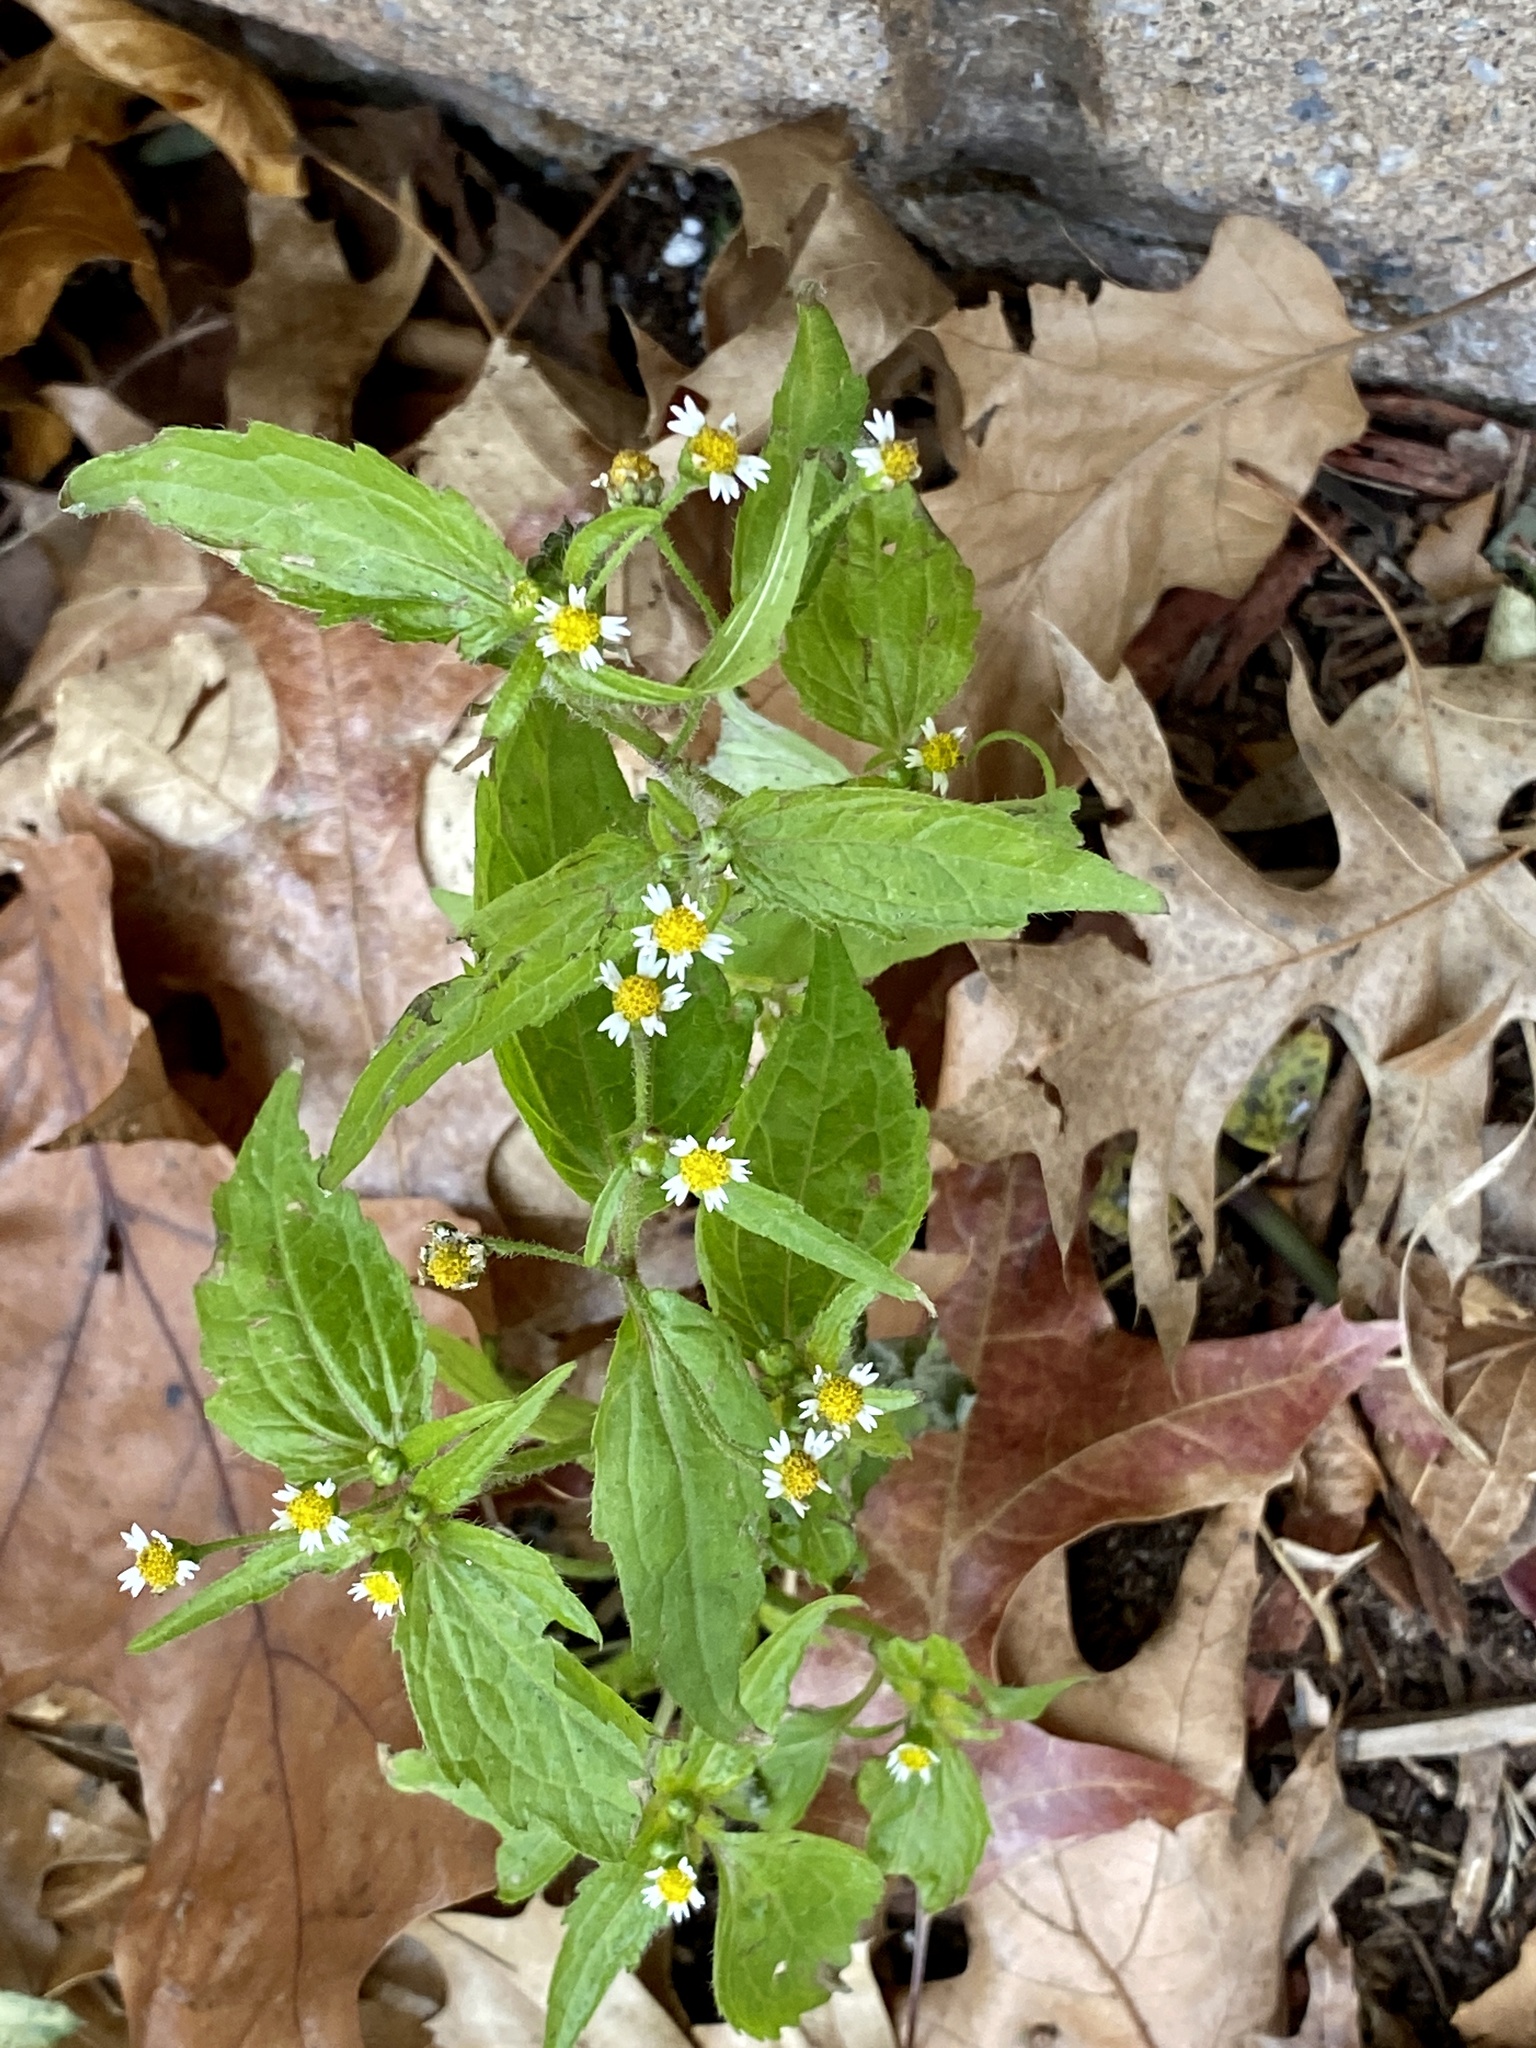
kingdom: Plantae
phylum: Tracheophyta
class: Magnoliopsida
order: Asterales
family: Asteraceae
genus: Galinsoga
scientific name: Galinsoga quadriradiata
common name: Shaggy soldier
